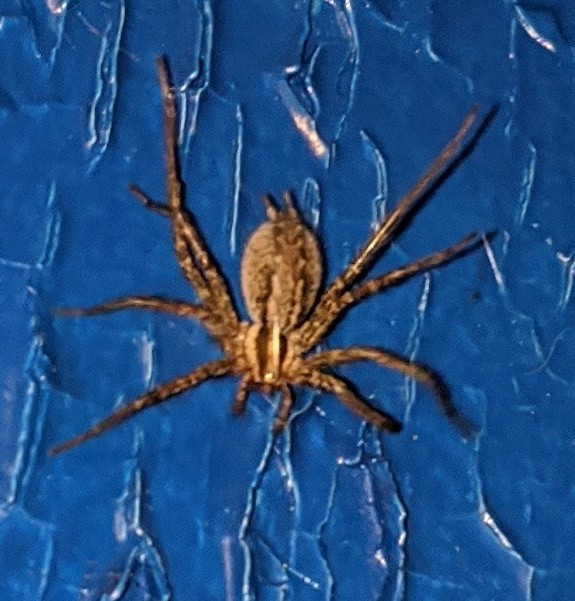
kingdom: Animalia
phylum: Arthropoda
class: Arachnida
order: Araneae
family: Agelenidae
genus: Agelenopsis
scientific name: Agelenopsis
